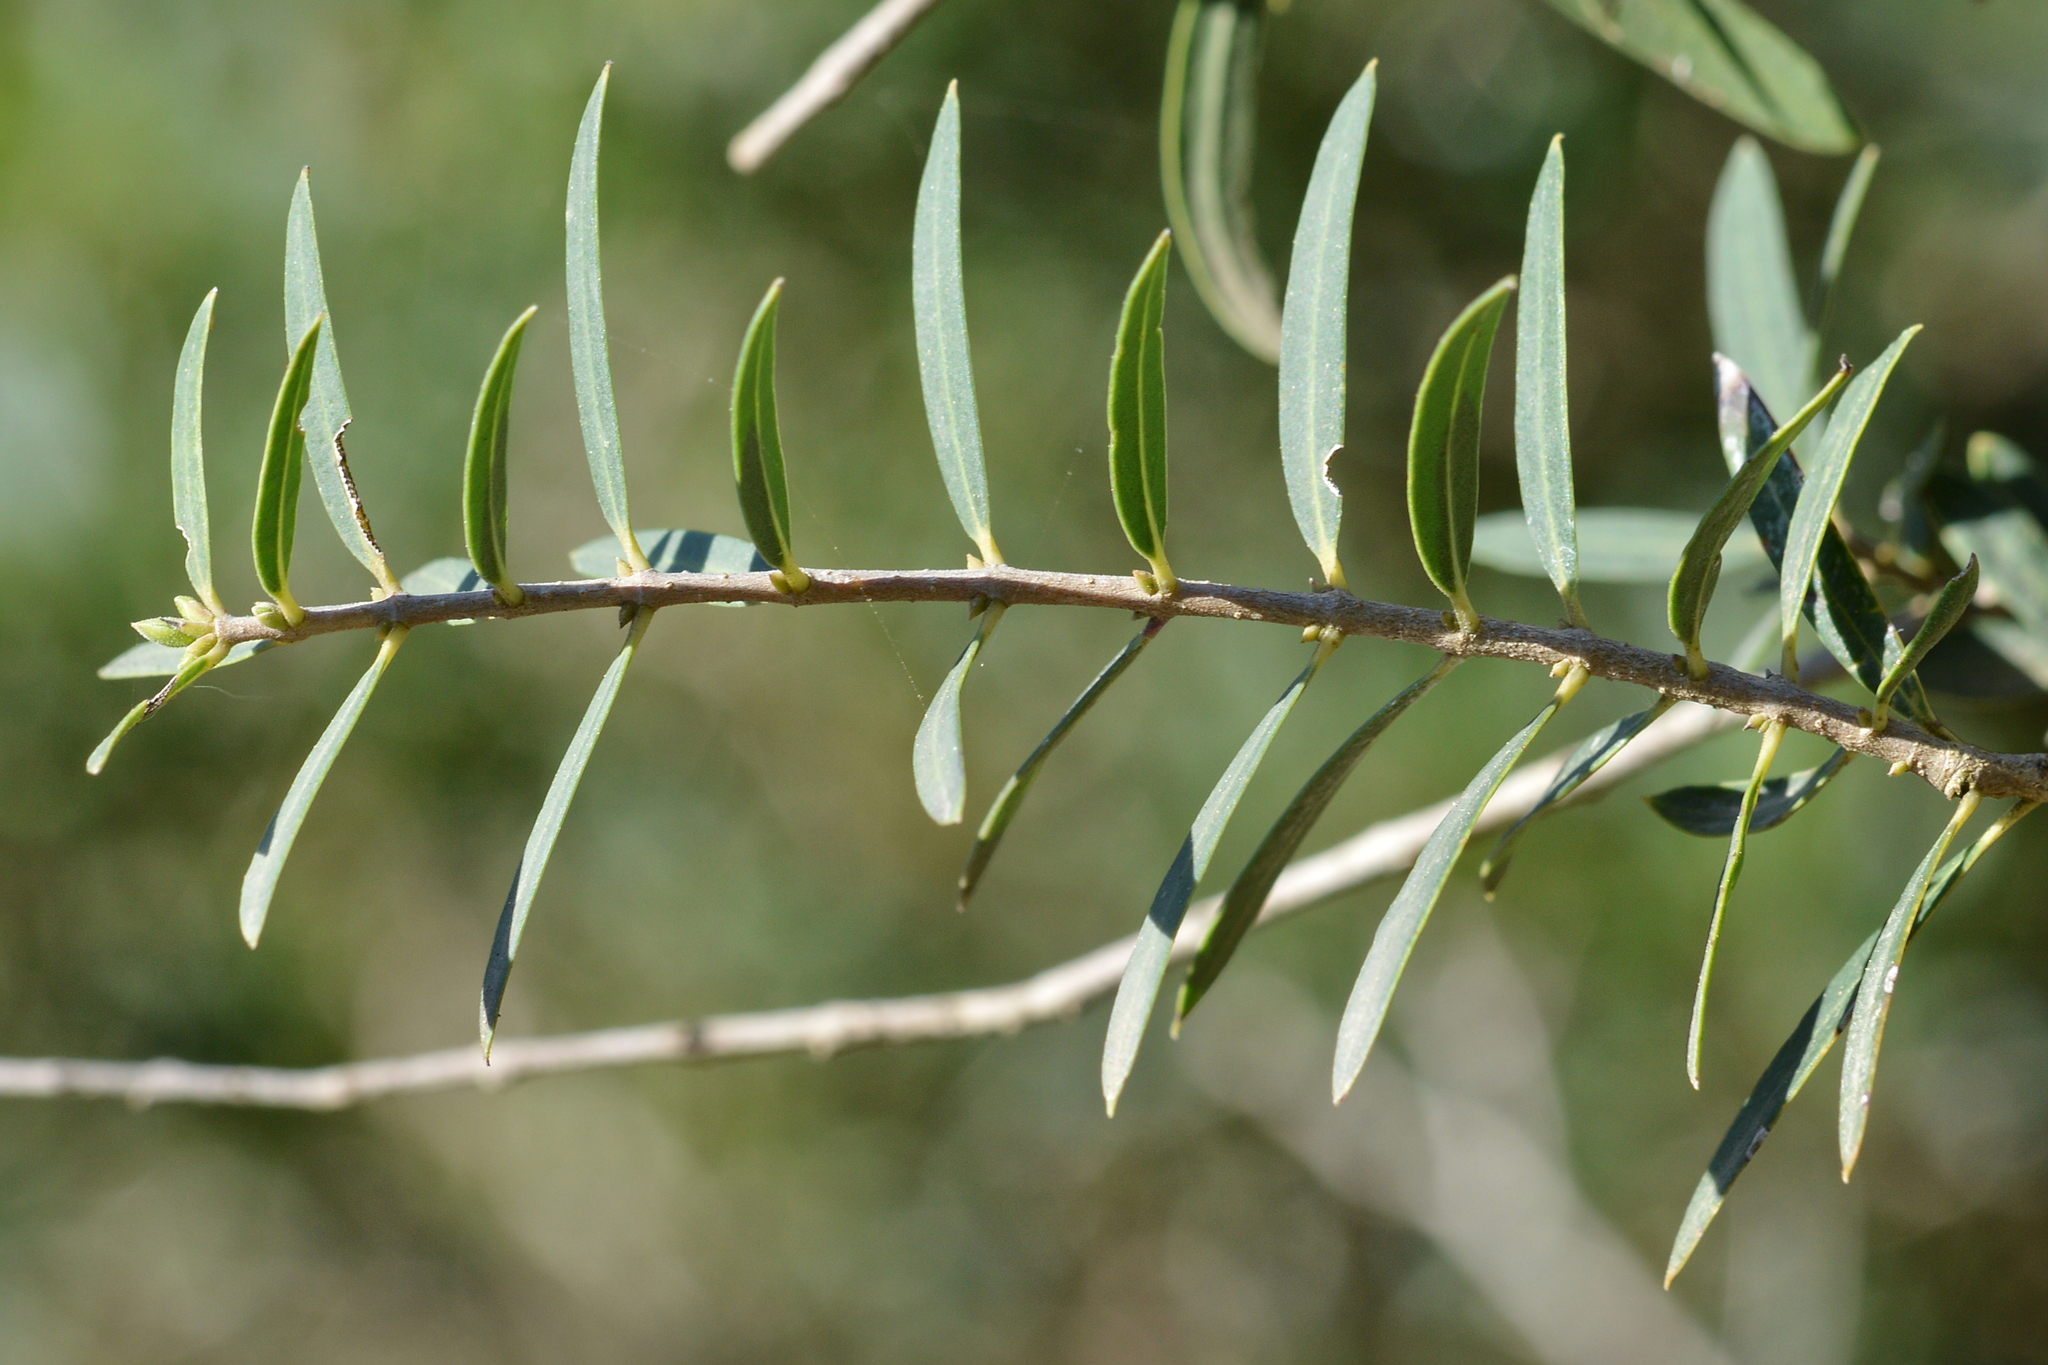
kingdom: Plantae
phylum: Tracheophyta
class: Magnoliopsida
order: Lamiales
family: Oleaceae
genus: Phillyrea
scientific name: Phillyrea angustifolia
